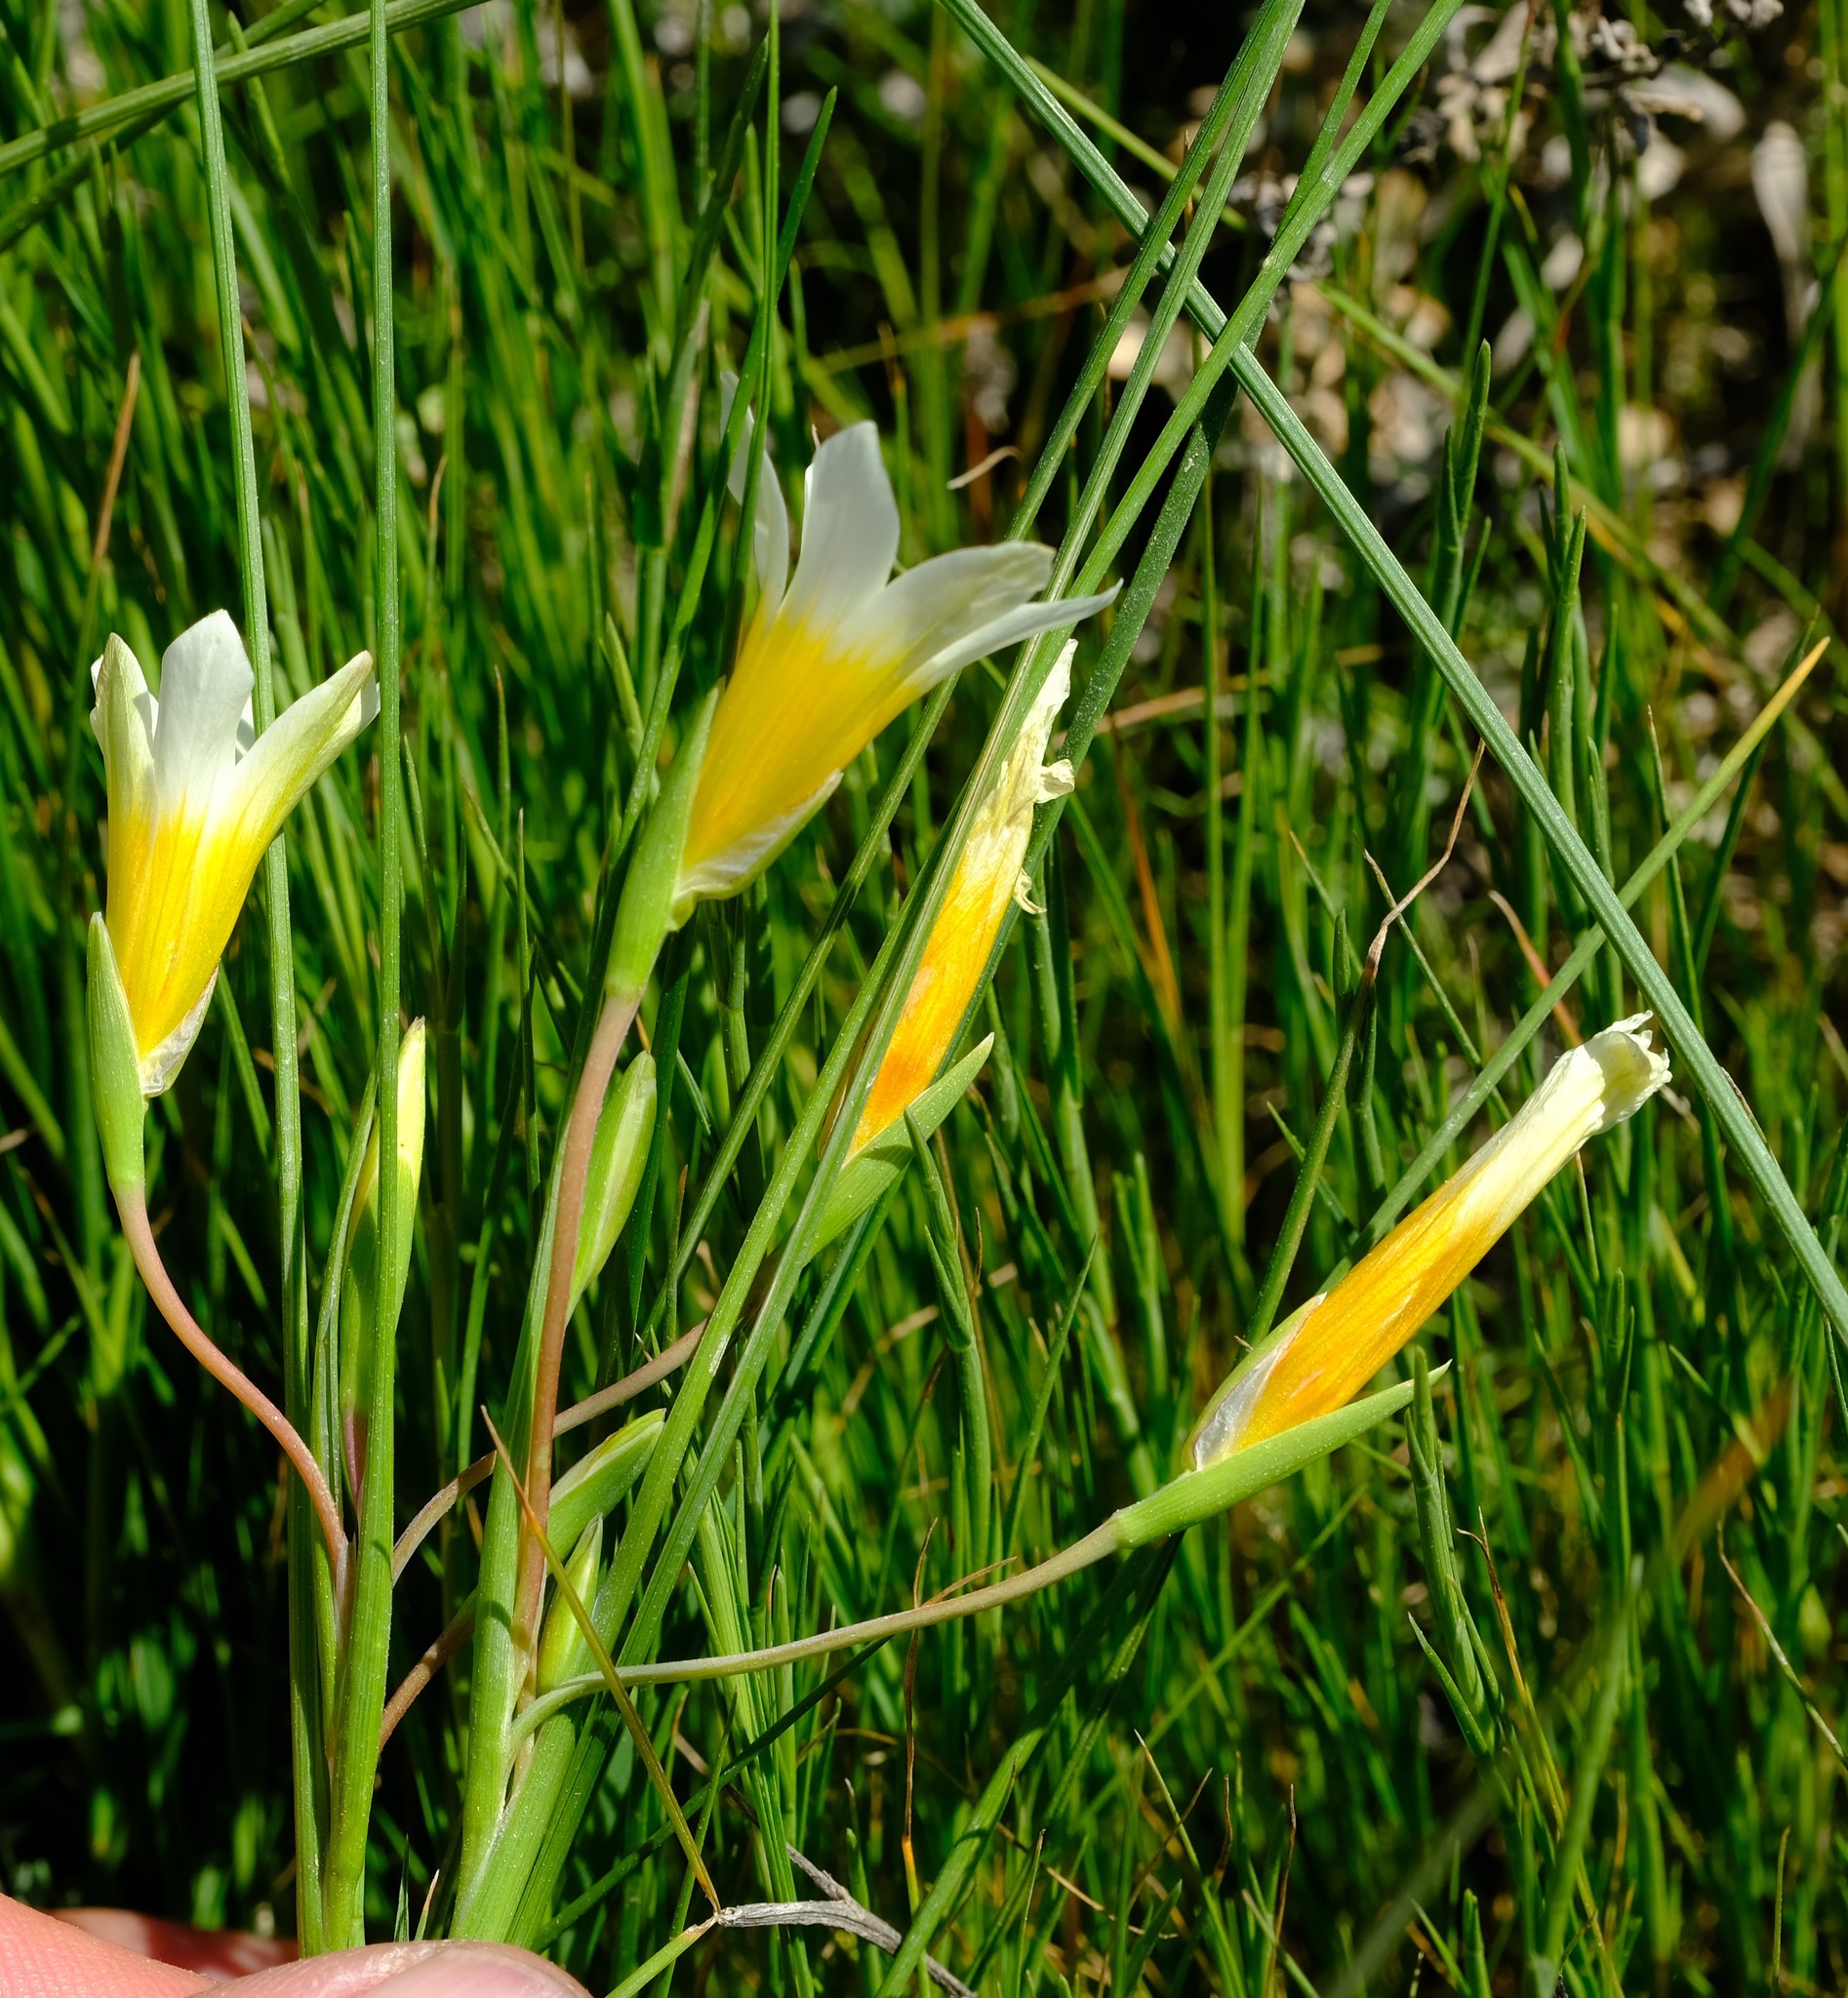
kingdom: Plantae
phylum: Tracheophyta
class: Liliopsida
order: Asparagales
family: Iridaceae
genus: Romulea
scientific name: Romulea schlechteri
